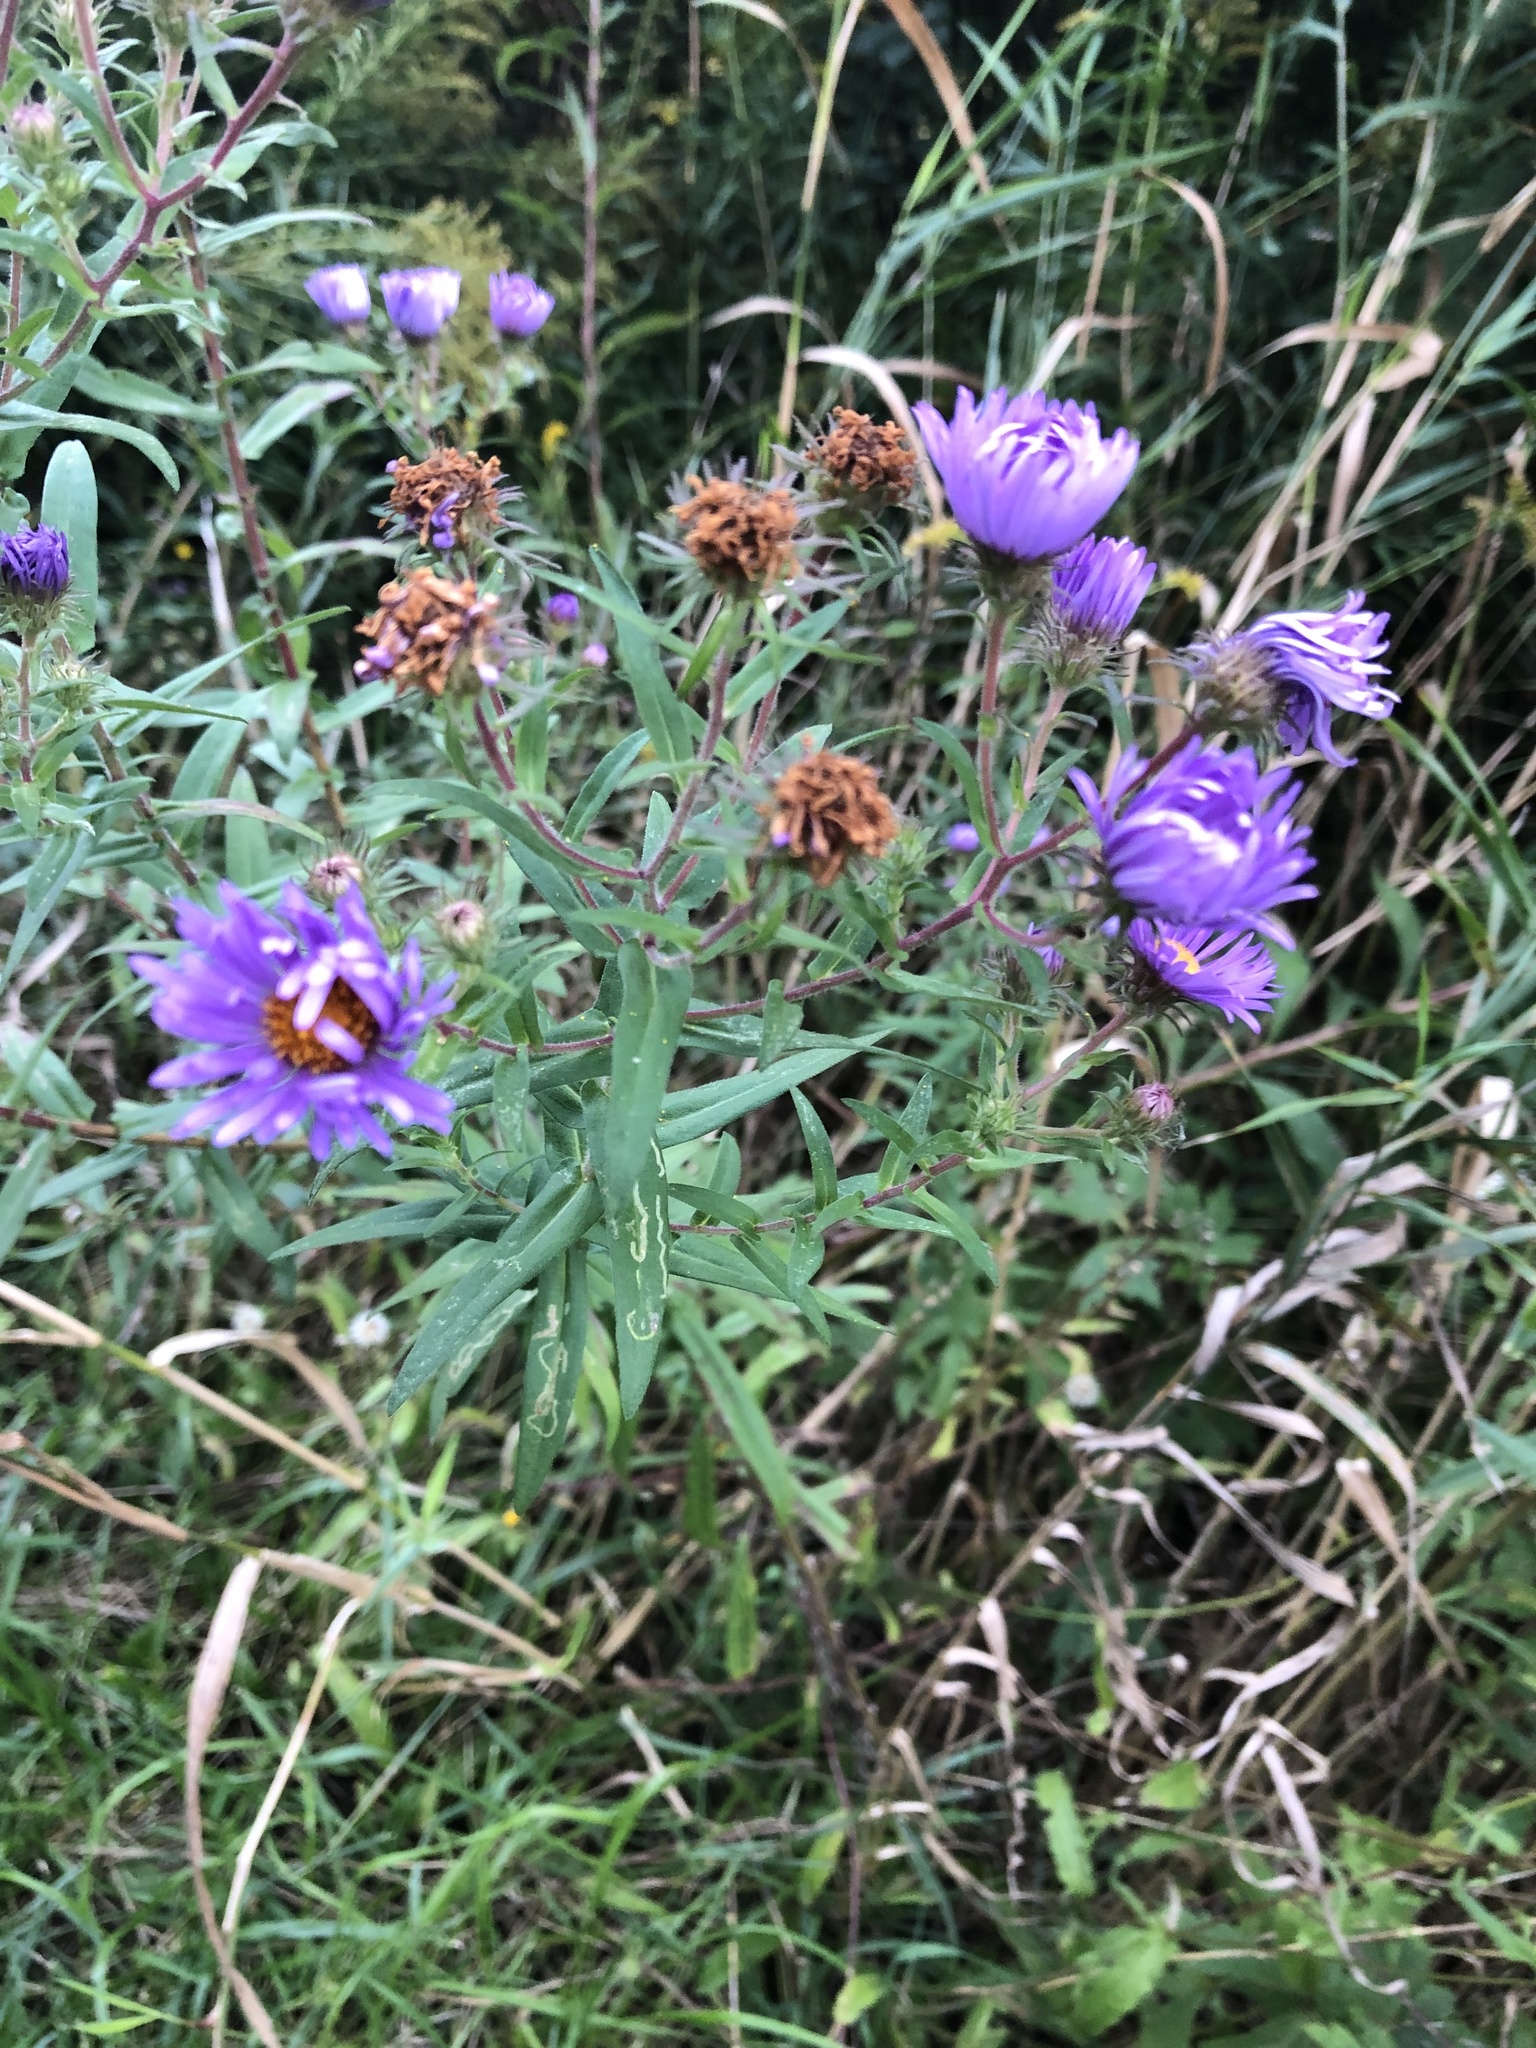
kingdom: Plantae
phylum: Tracheophyta
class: Magnoliopsida
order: Asterales
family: Asteraceae
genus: Symphyotrichum
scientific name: Symphyotrichum novae-angliae
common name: Michaelmas daisy
